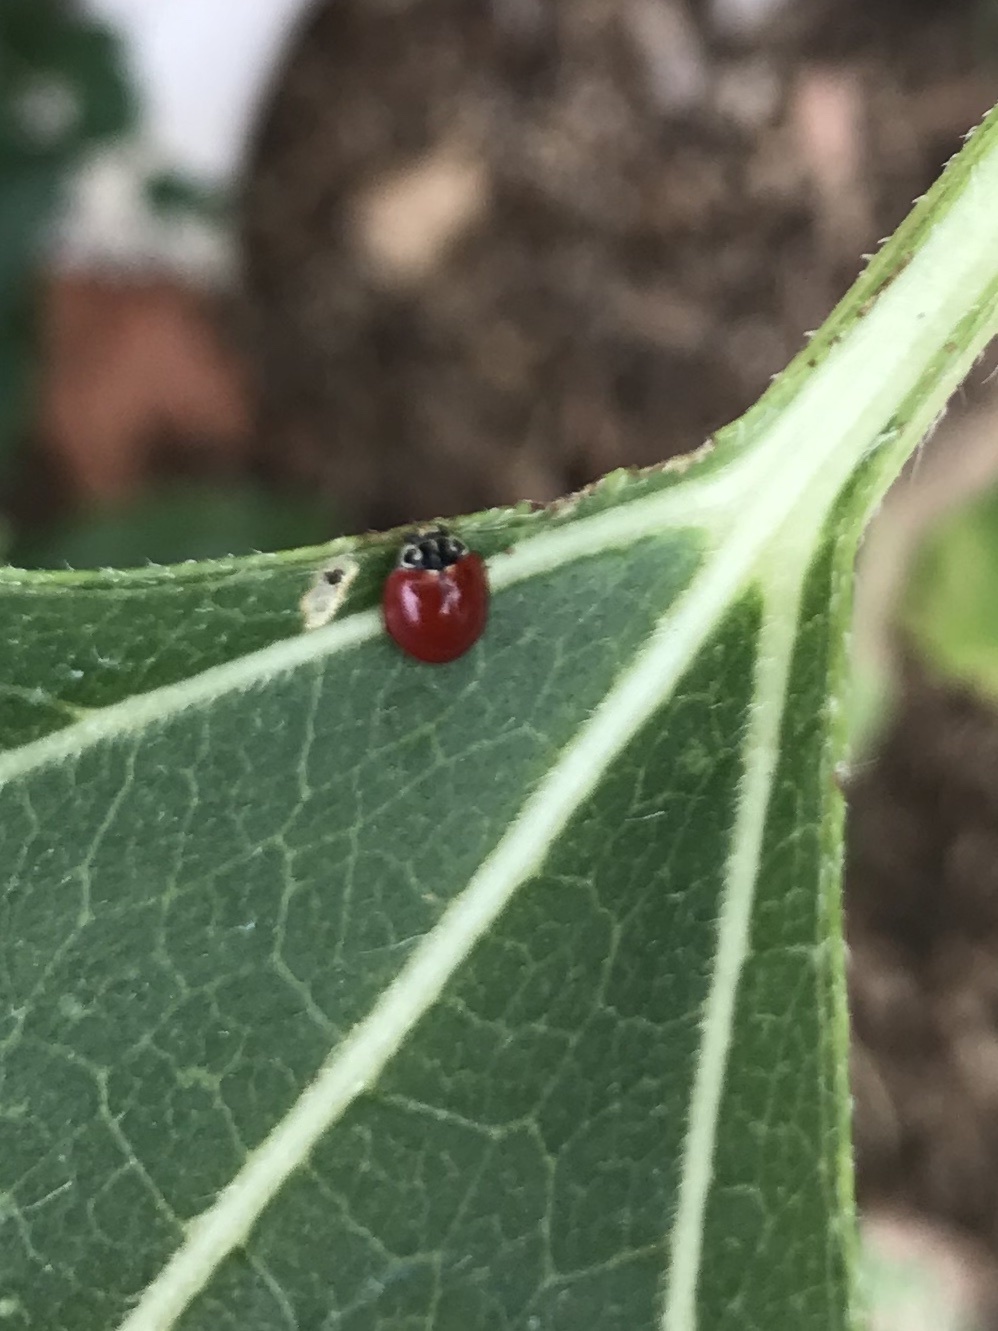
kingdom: Animalia
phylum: Arthropoda
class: Insecta
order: Coleoptera
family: Coccinellidae
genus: Cycloneda
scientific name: Cycloneda polita
